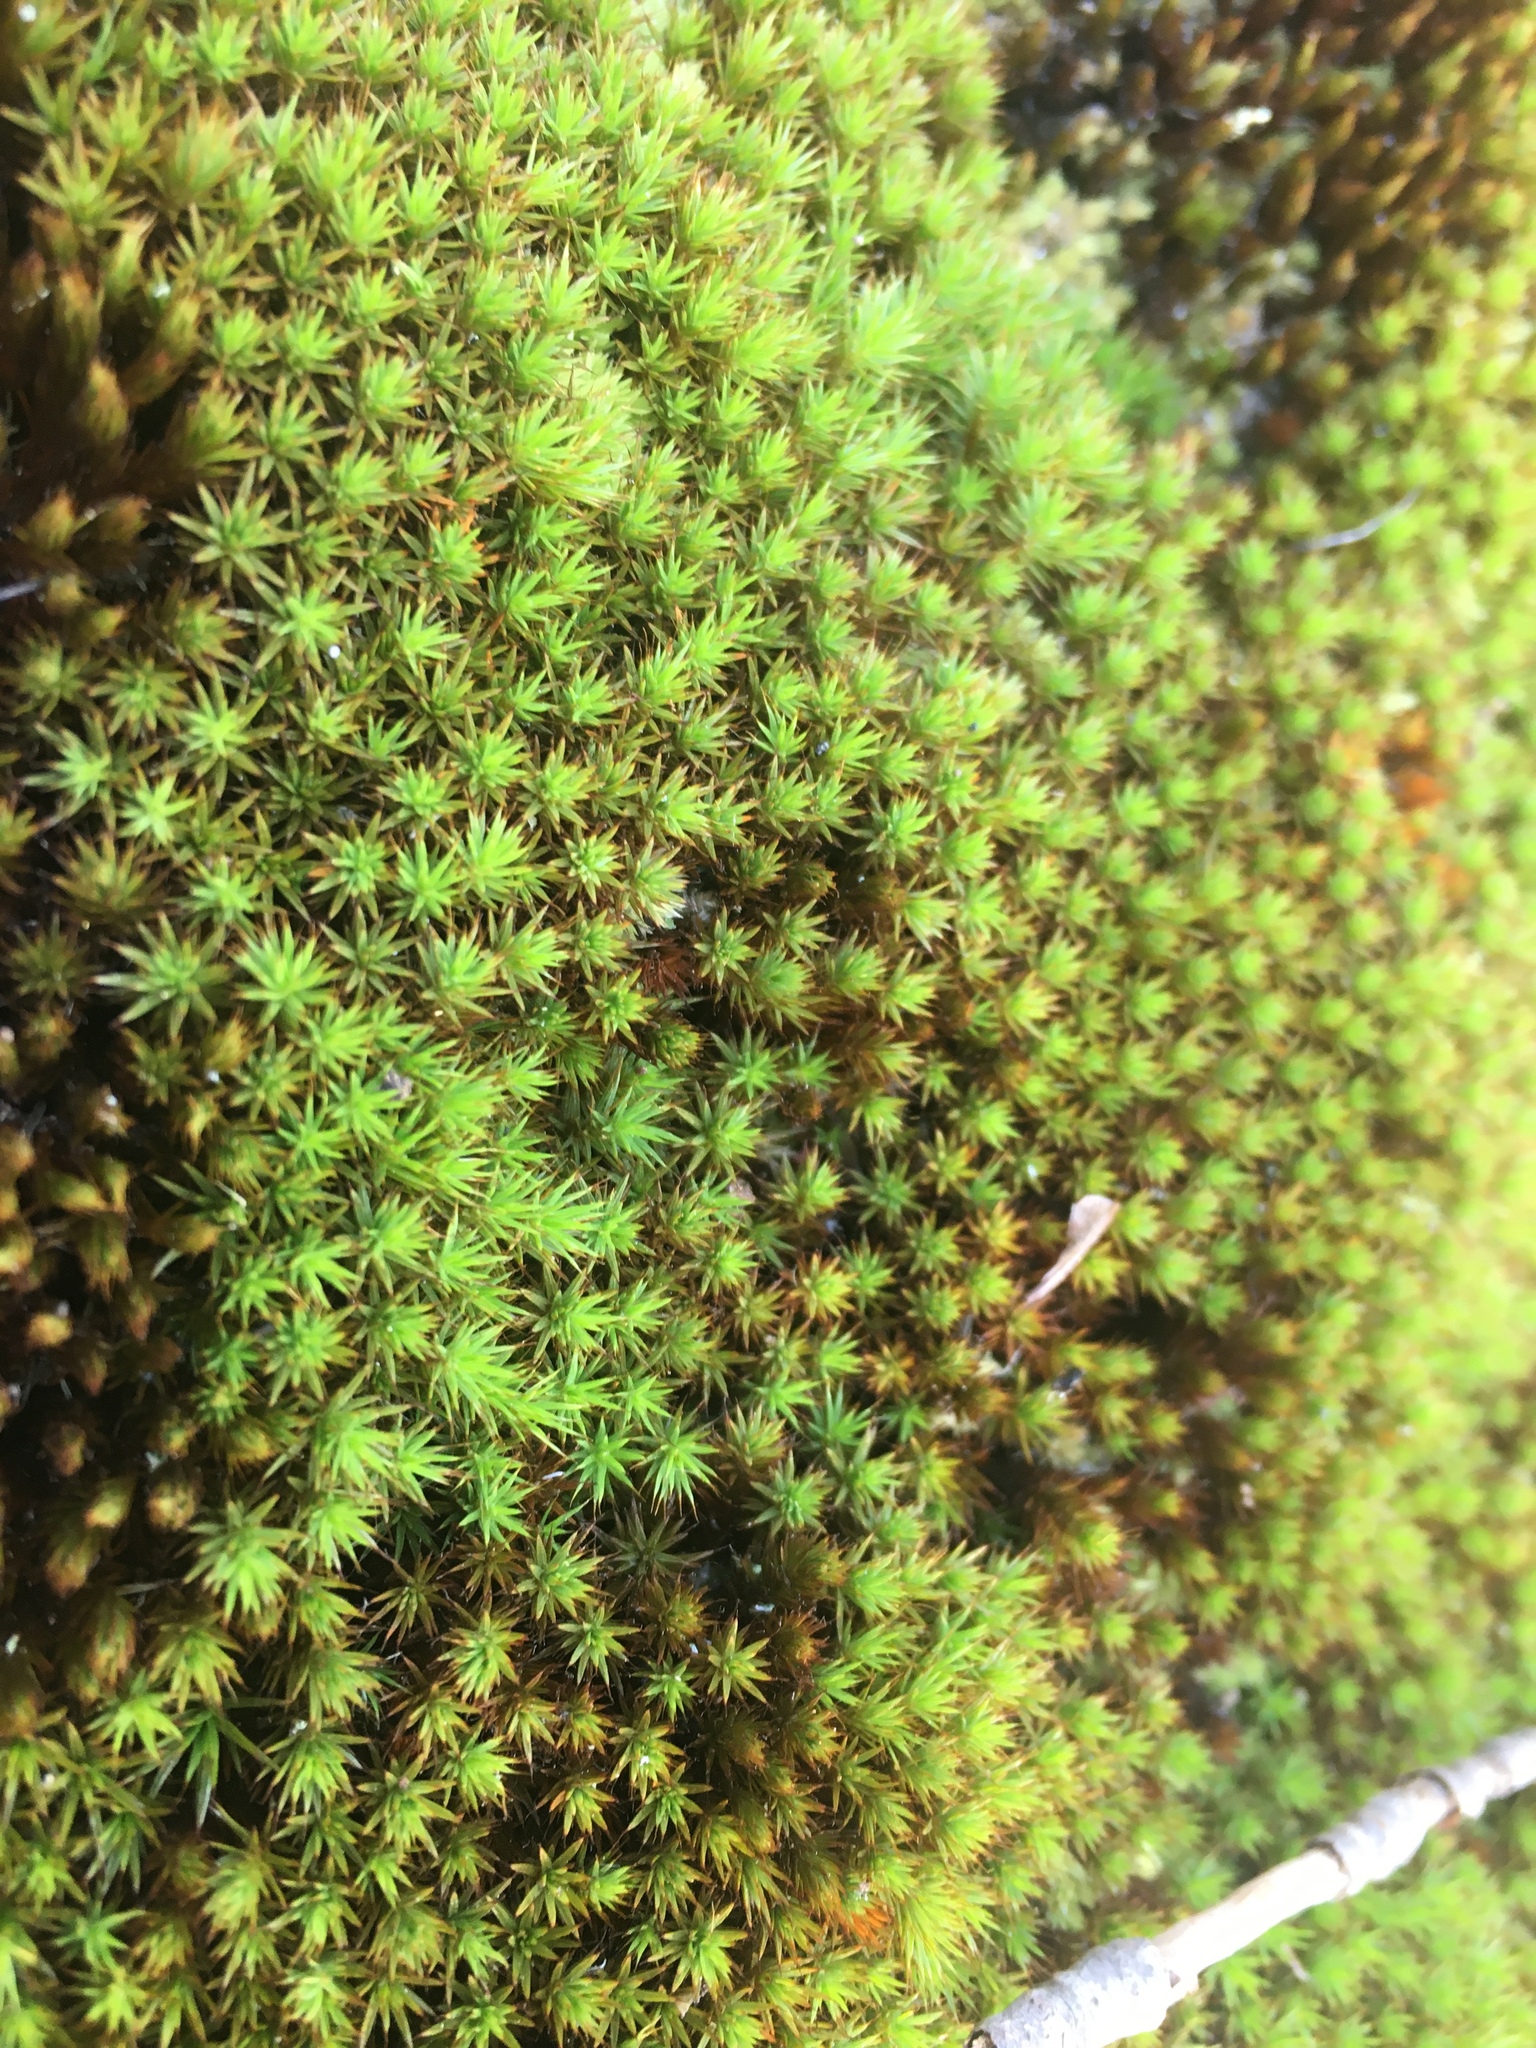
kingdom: Plantae
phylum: Bryophyta
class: Polytrichopsida
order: Polytrichales
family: Polytrichaceae
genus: Polytrichum
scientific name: Polytrichum piliferum
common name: Bristly haircap
